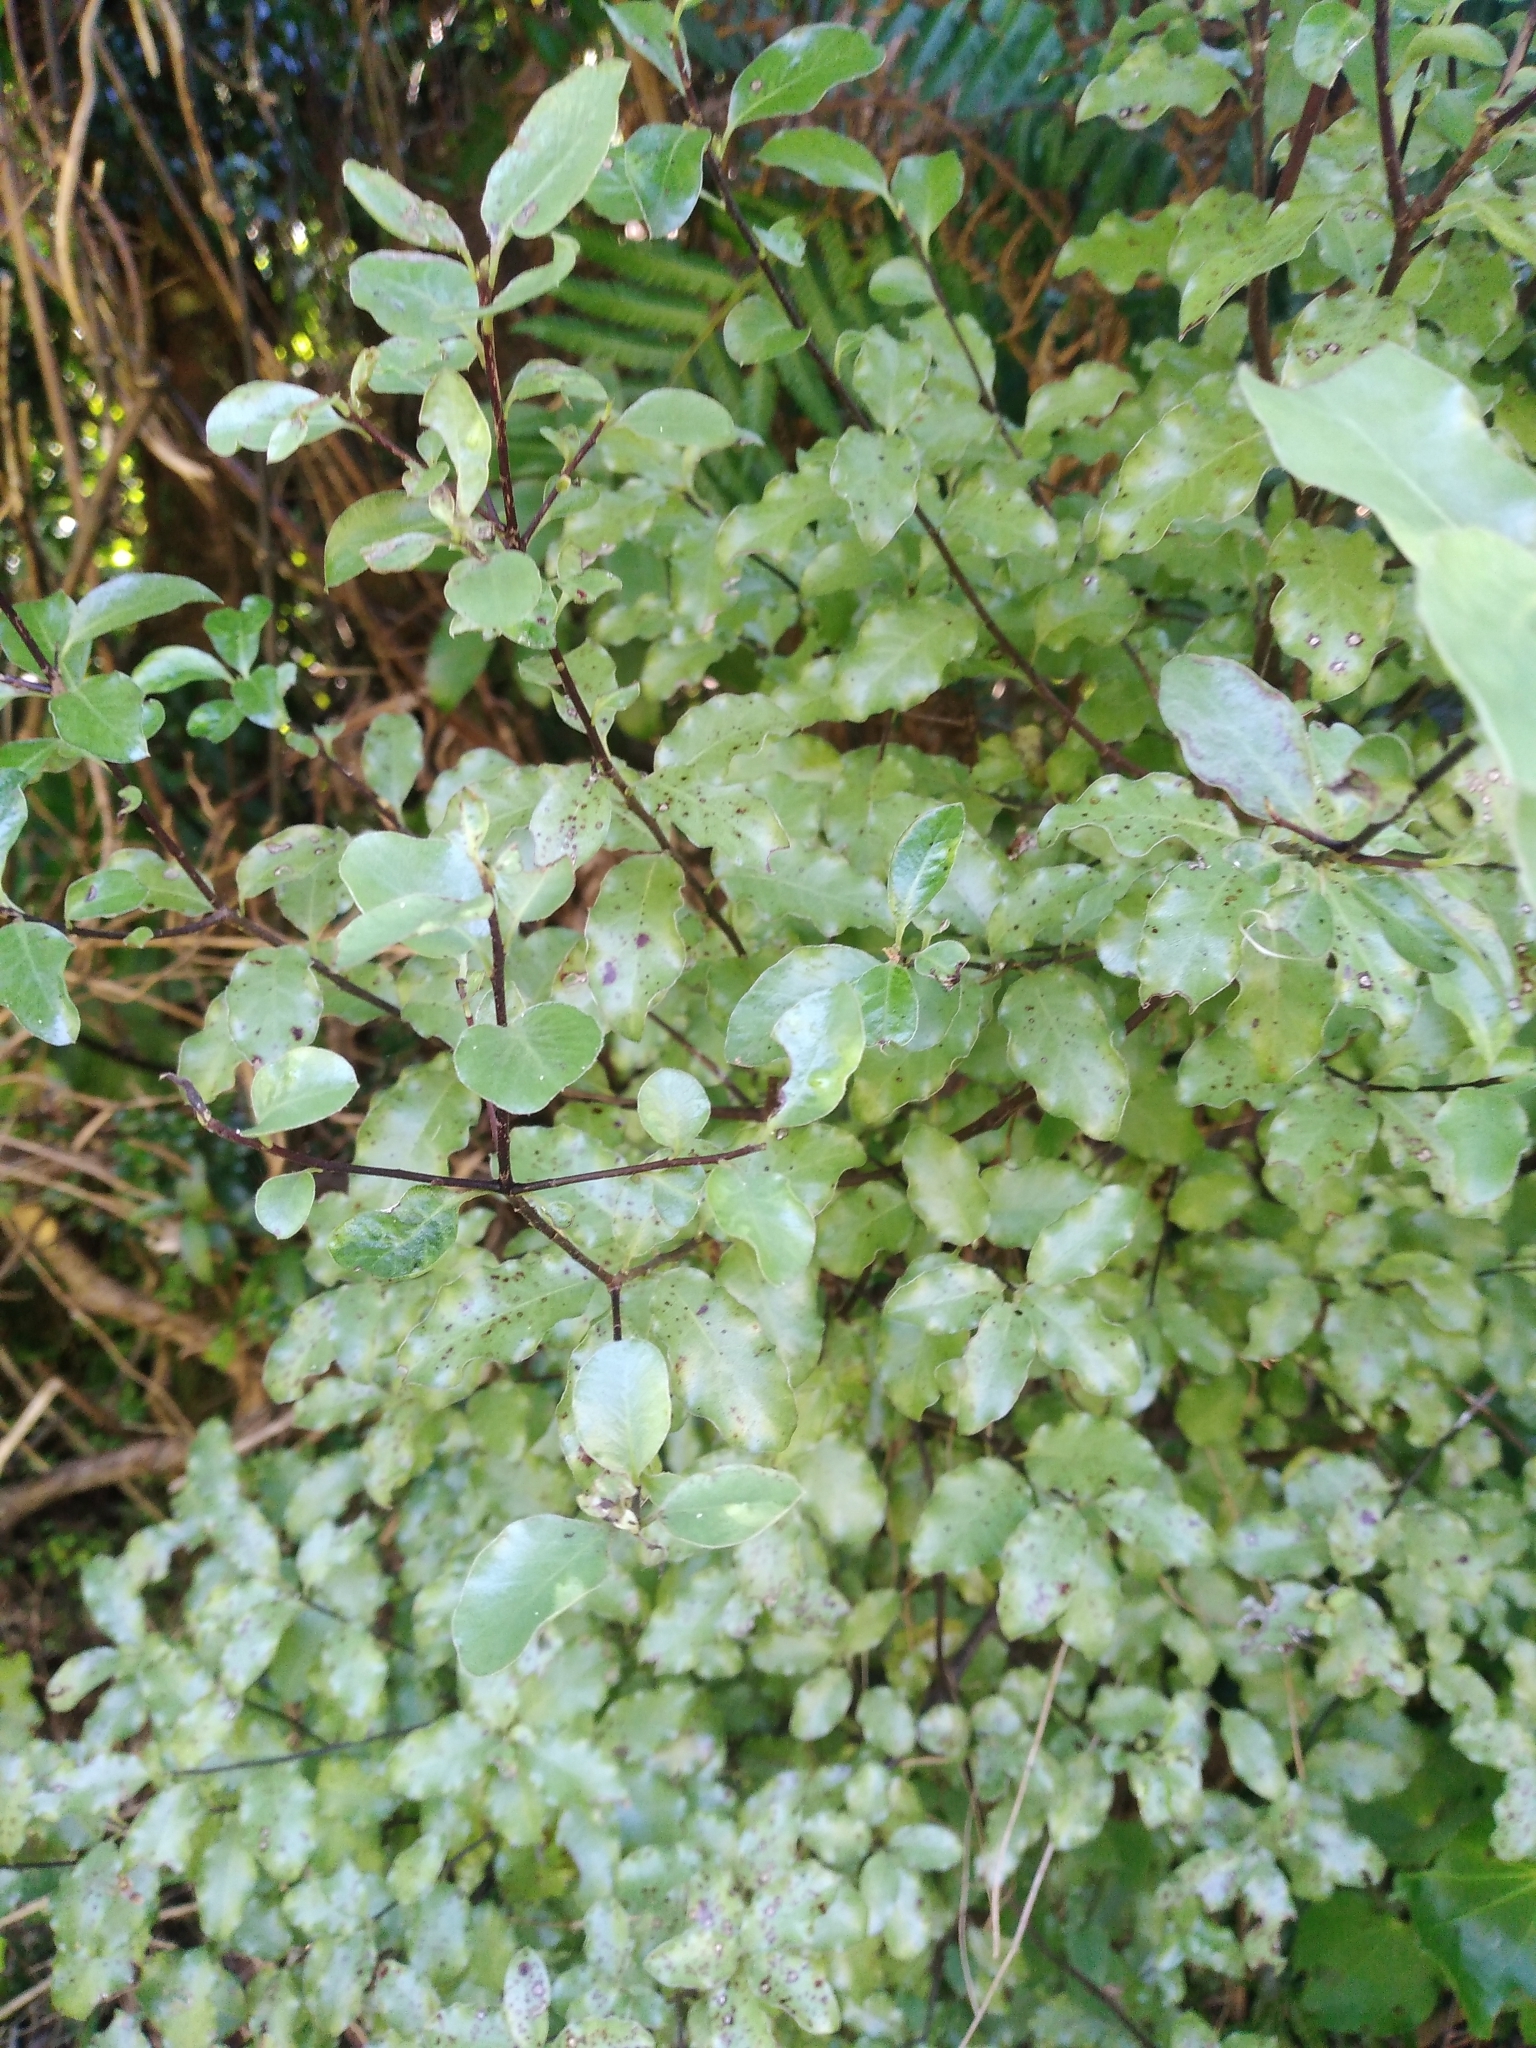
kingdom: Plantae
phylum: Tracheophyta
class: Magnoliopsida
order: Apiales
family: Pittosporaceae
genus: Pittosporum
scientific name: Pittosporum tenuifolium
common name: Kohuhu
